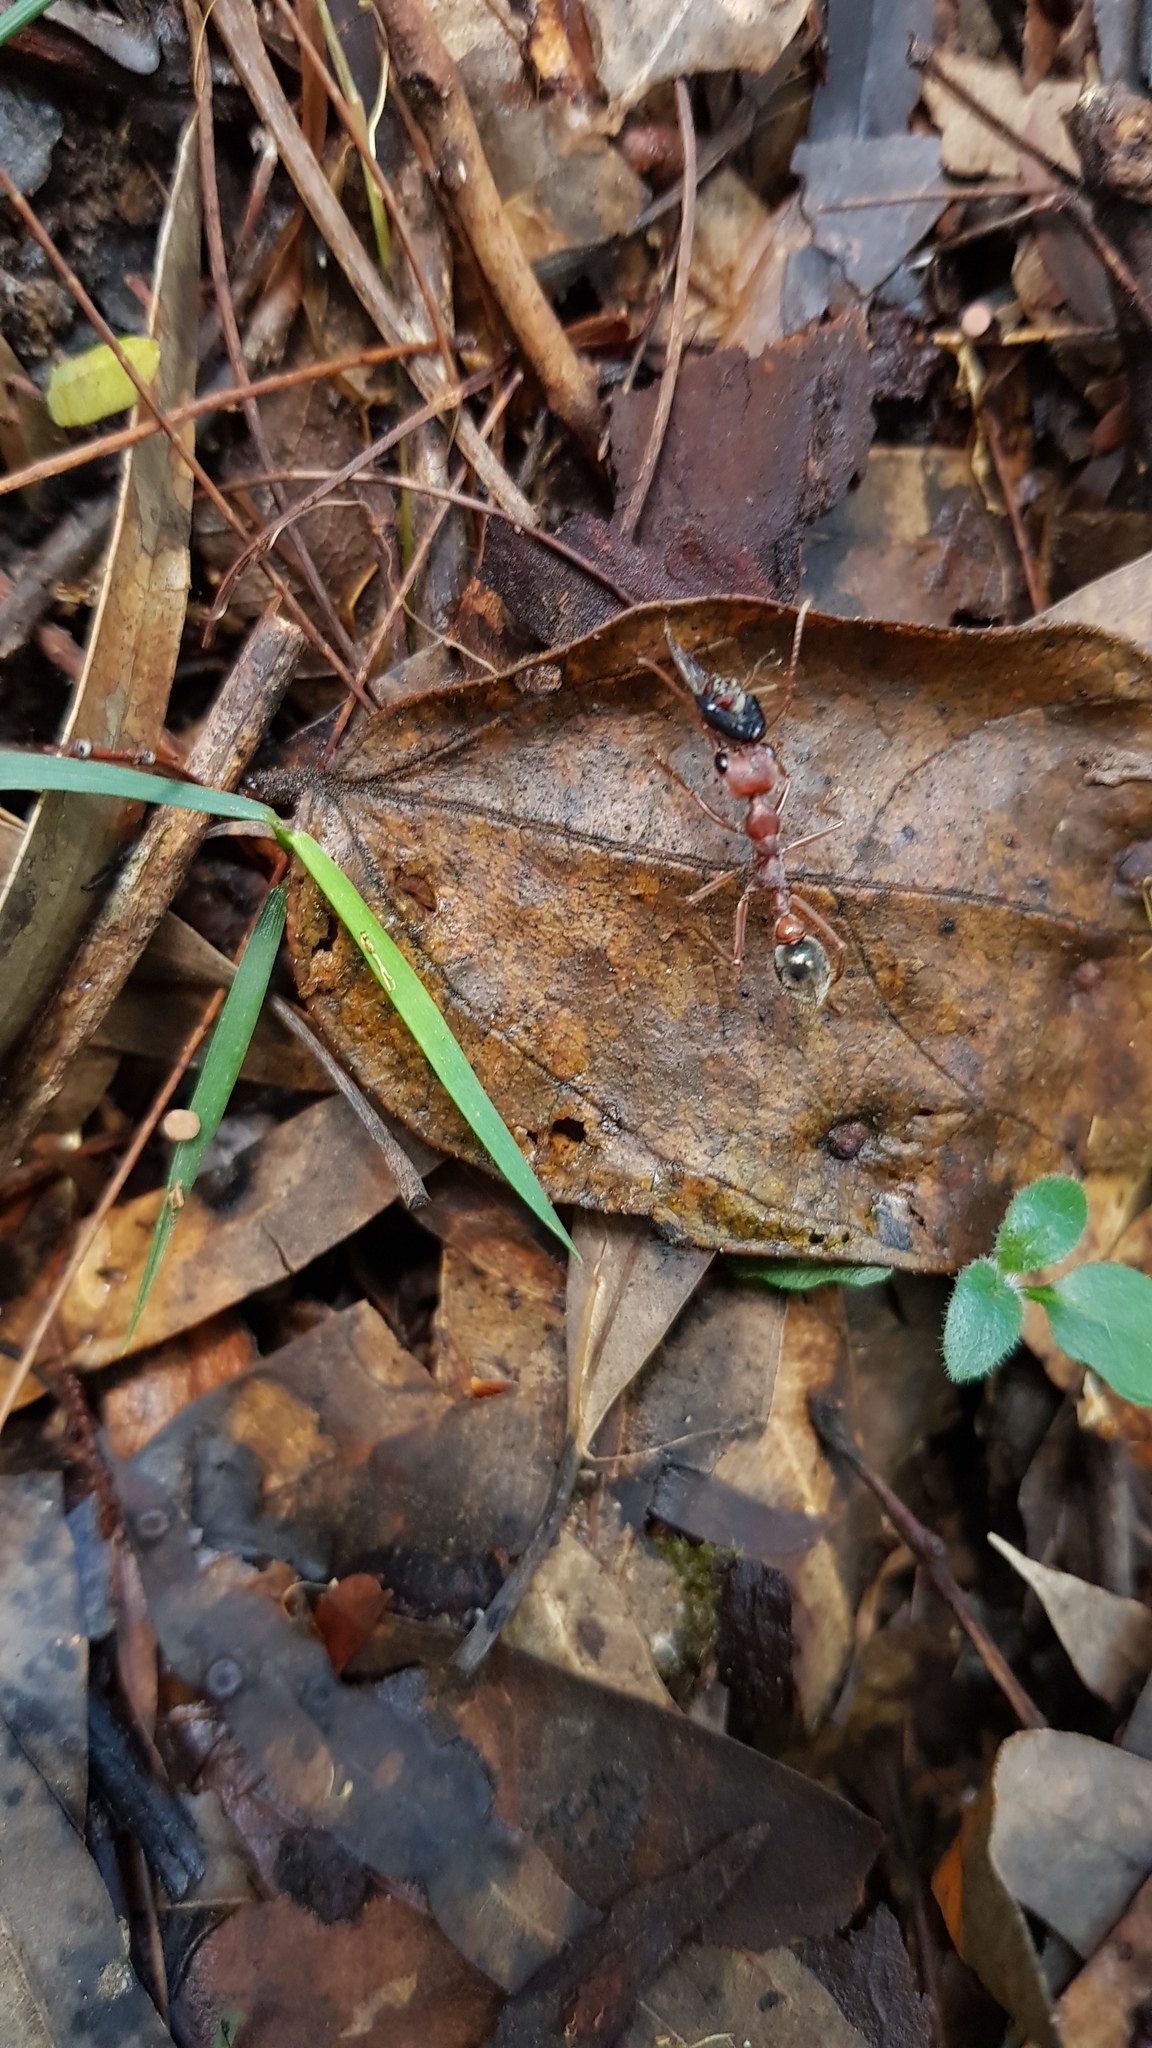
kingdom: Animalia
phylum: Arthropoda
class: Insecta
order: Hymenoptera
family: Formicidae
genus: Myrmecia
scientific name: Myrmecia brevinoda
